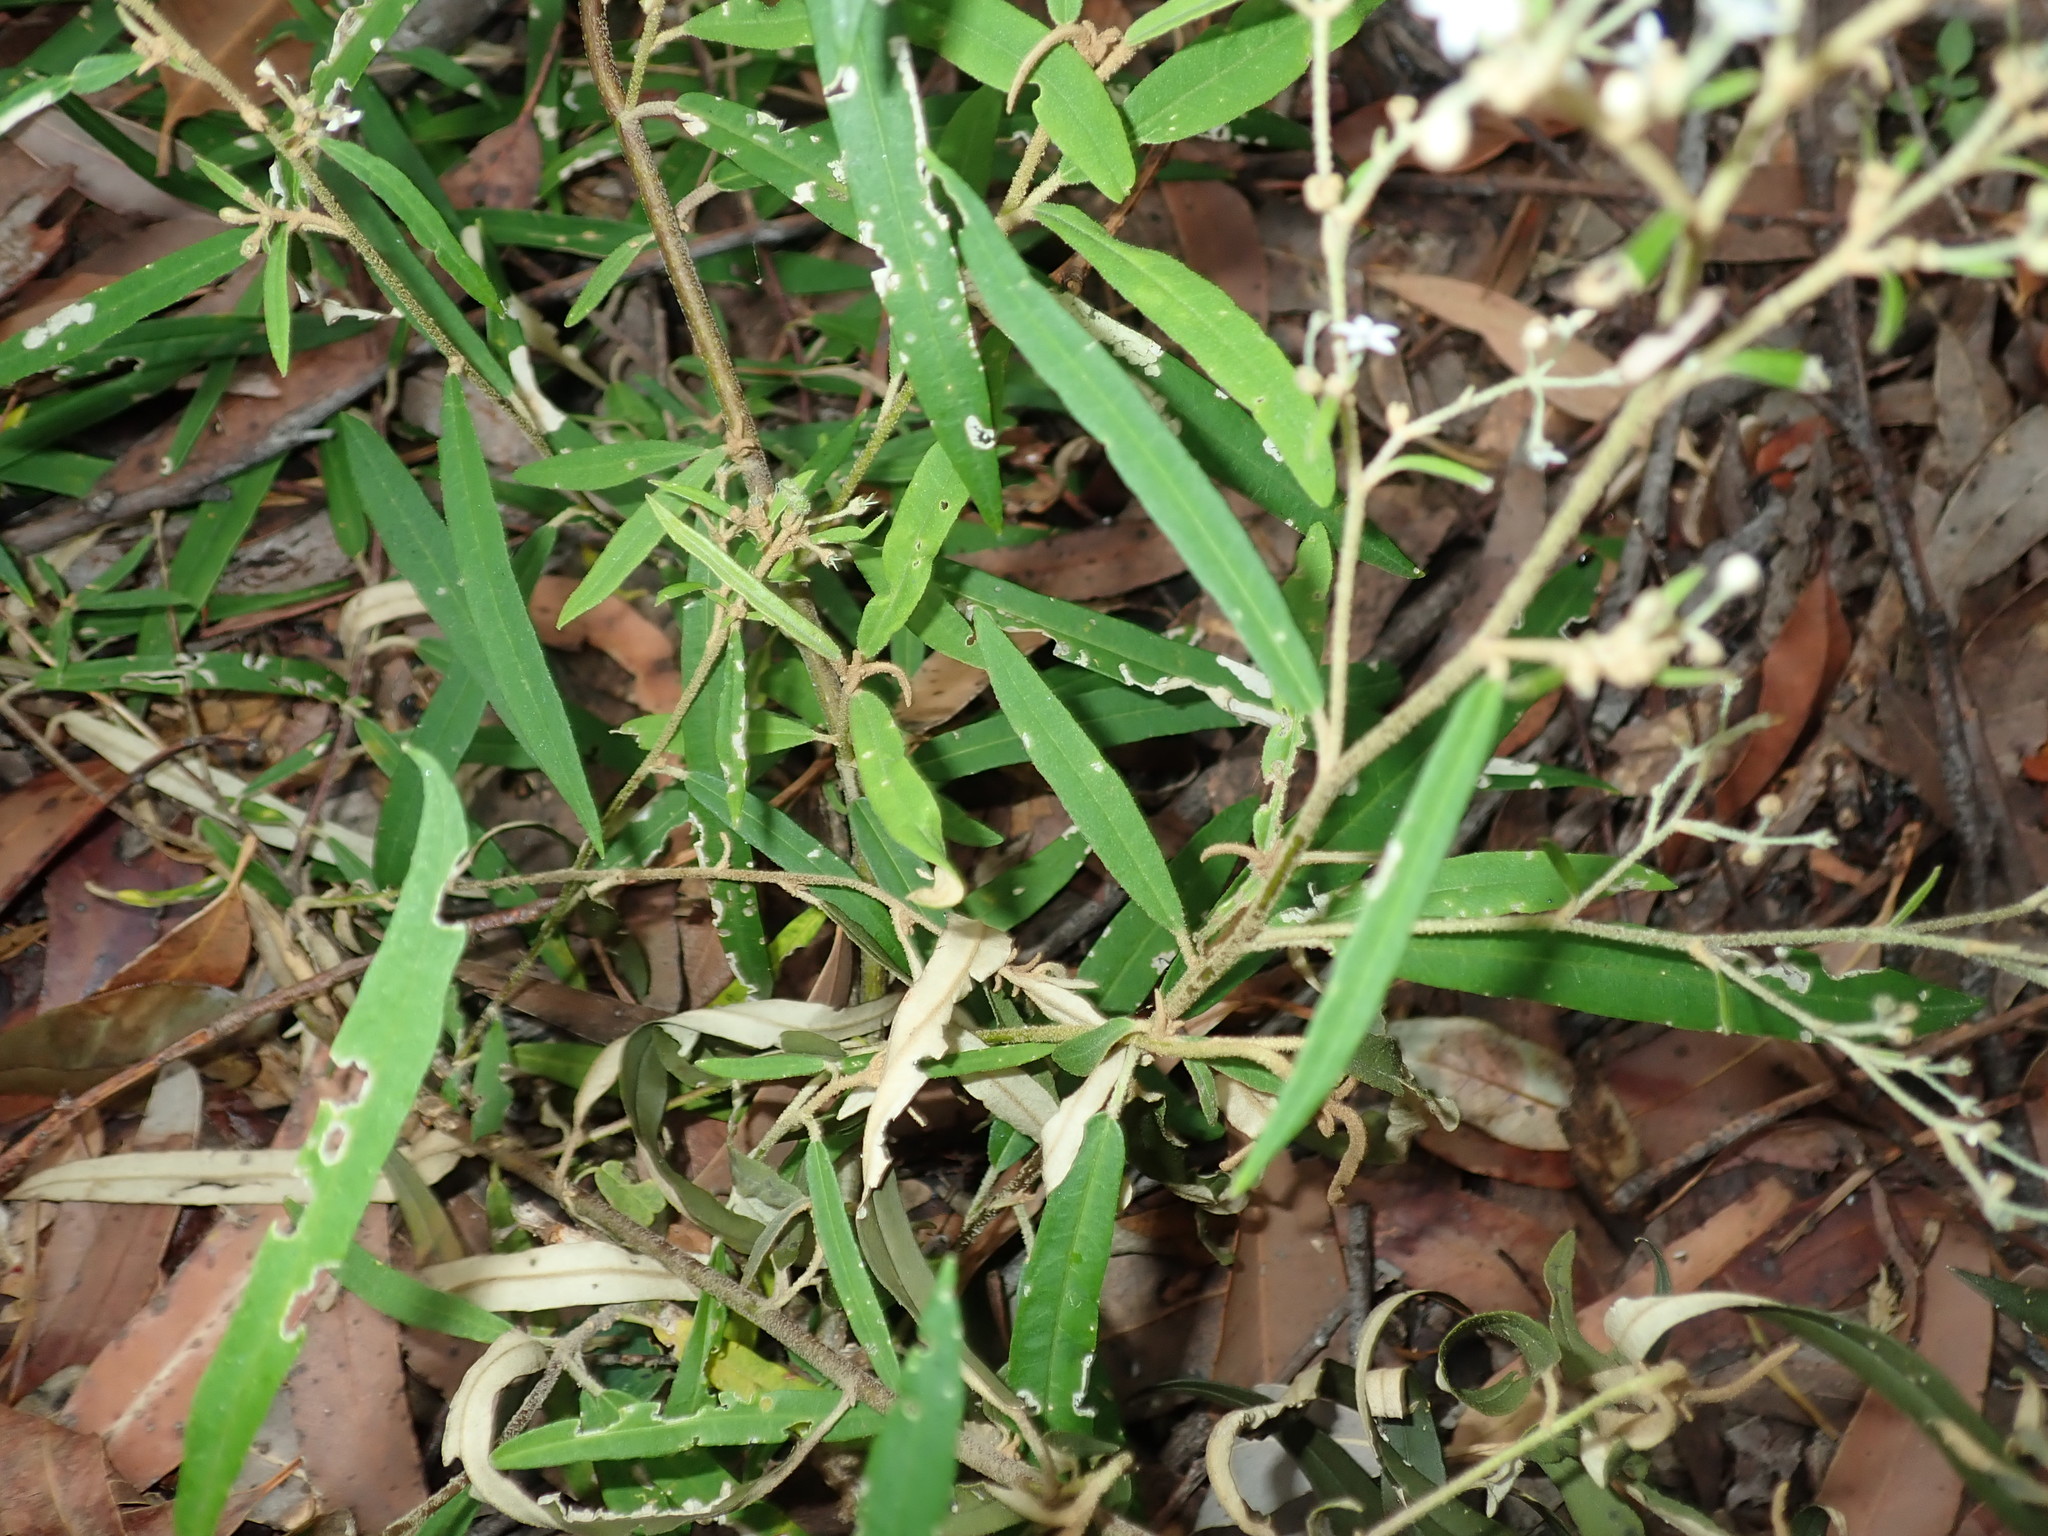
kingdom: Plantae
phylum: Tracheophyta
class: Magnoliopsida
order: Apiales
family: Araliaceae
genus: Astrotricha
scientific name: Astrotricha longifolia
